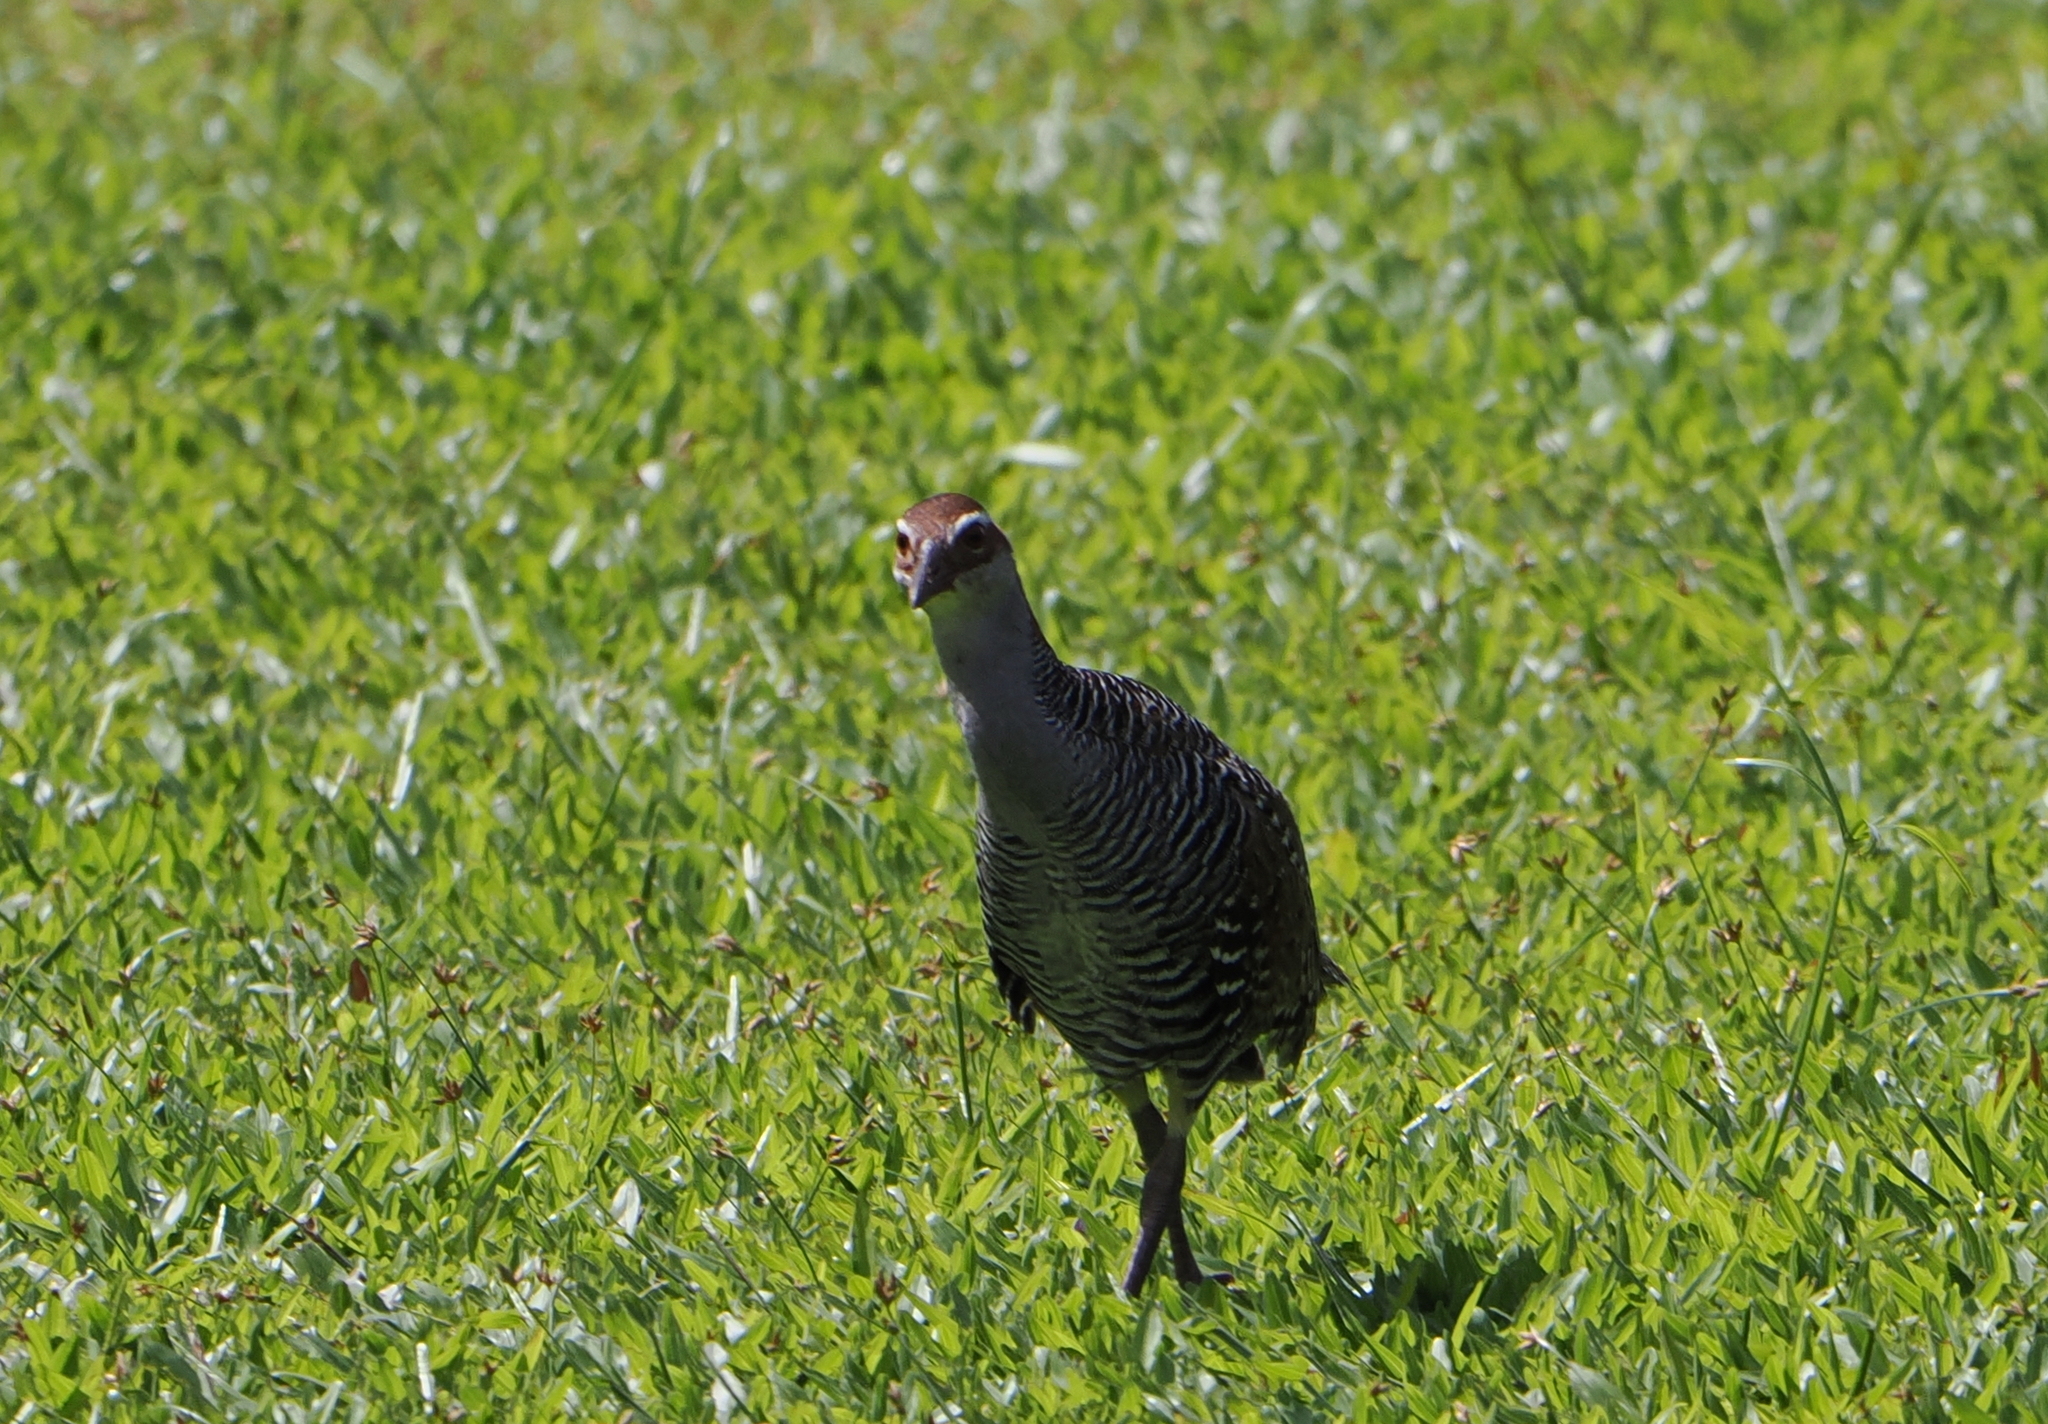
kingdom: Animalia
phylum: Chordata
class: Aves
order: Gruiformes
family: Rallidae
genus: Gallirallus
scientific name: Gallirallus philippensis
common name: Buff-banded rail
